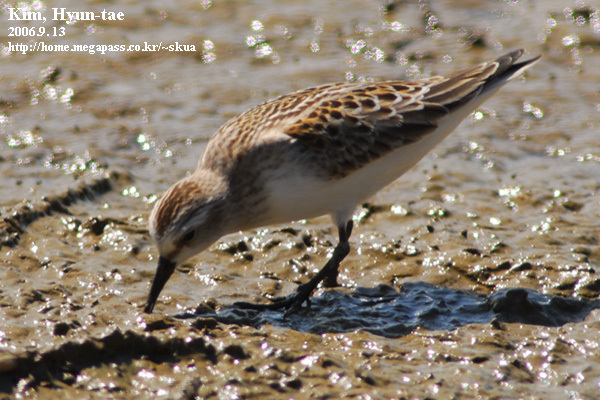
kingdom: Animalia
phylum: Chordata
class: Aves
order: Charadriiformes
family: Scolopacidae
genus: Calidris
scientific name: Calidris ruficollis
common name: Red-necked stint
